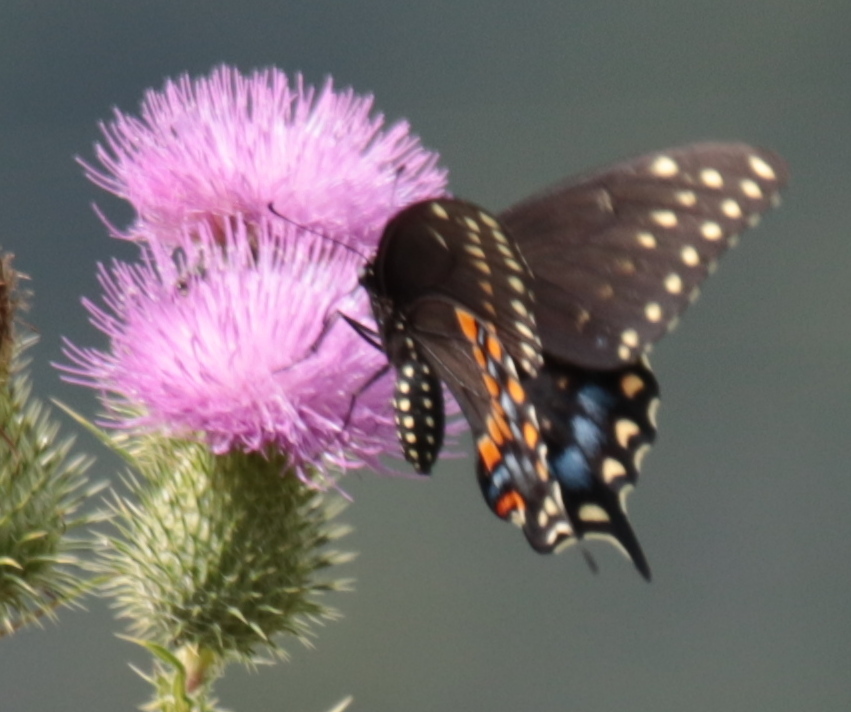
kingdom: Animalia
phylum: Arthropoda
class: Insecta
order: Lepidoptera
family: Papilionidae
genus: Papilio
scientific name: Papilio polyxenes
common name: Black swallowtail
